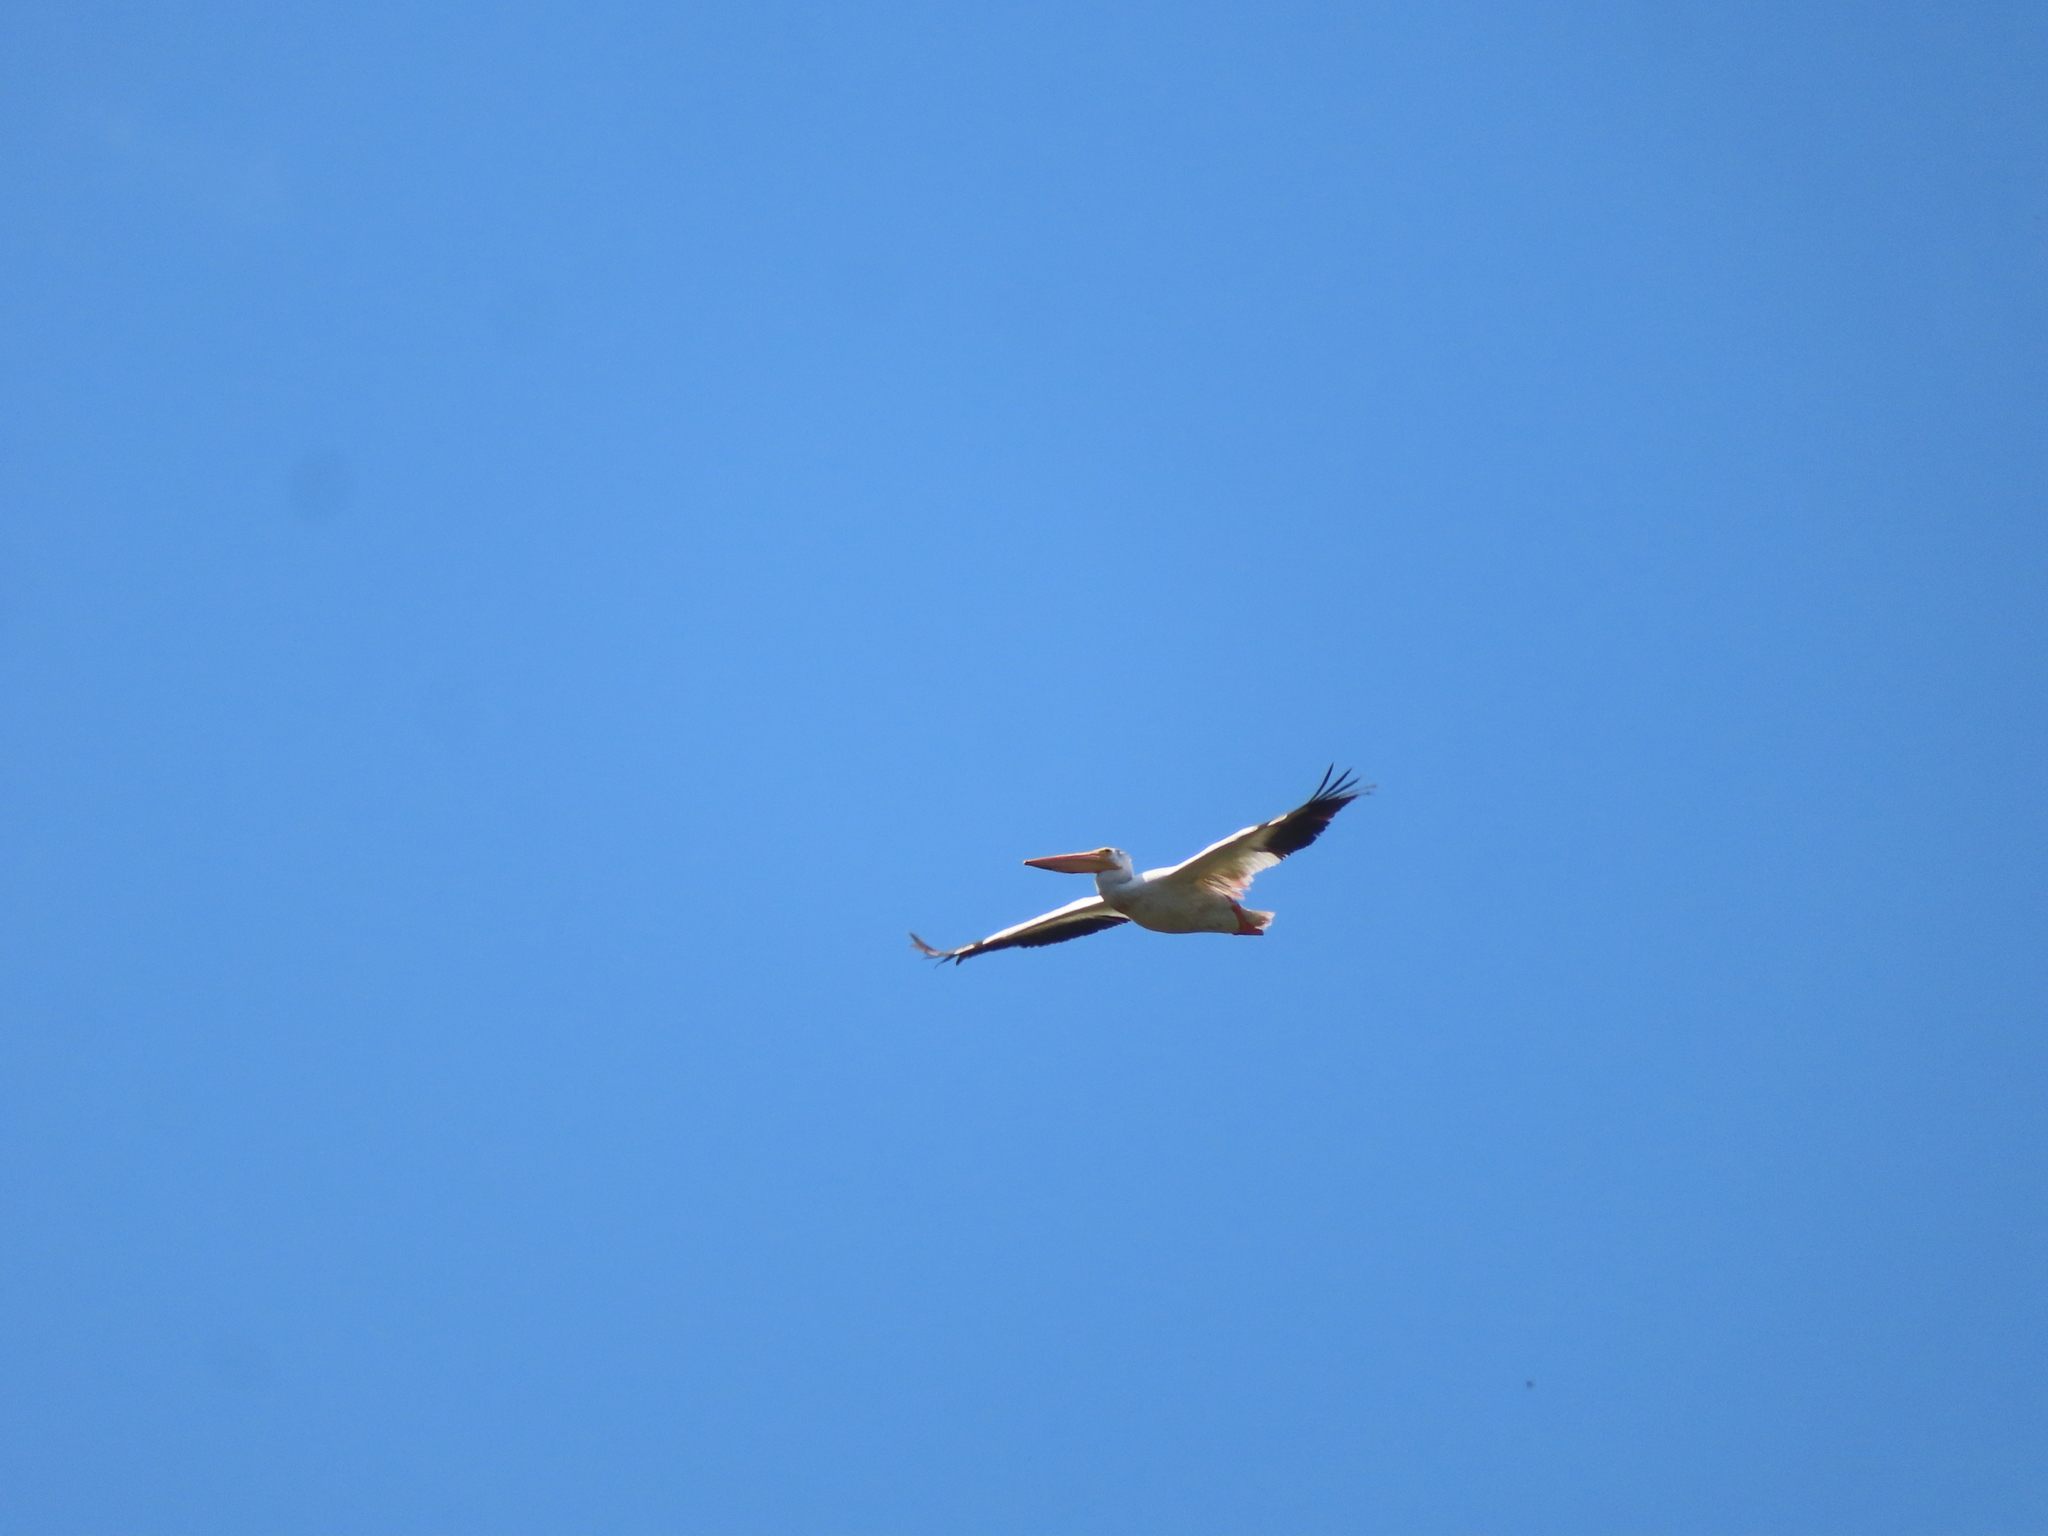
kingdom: Animalia
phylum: Chordata
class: Aves
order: Pelecaniformes
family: Pelecanidae
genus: Pelecanus
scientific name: Pelecanus erythrorhynchos
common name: American white pelican
